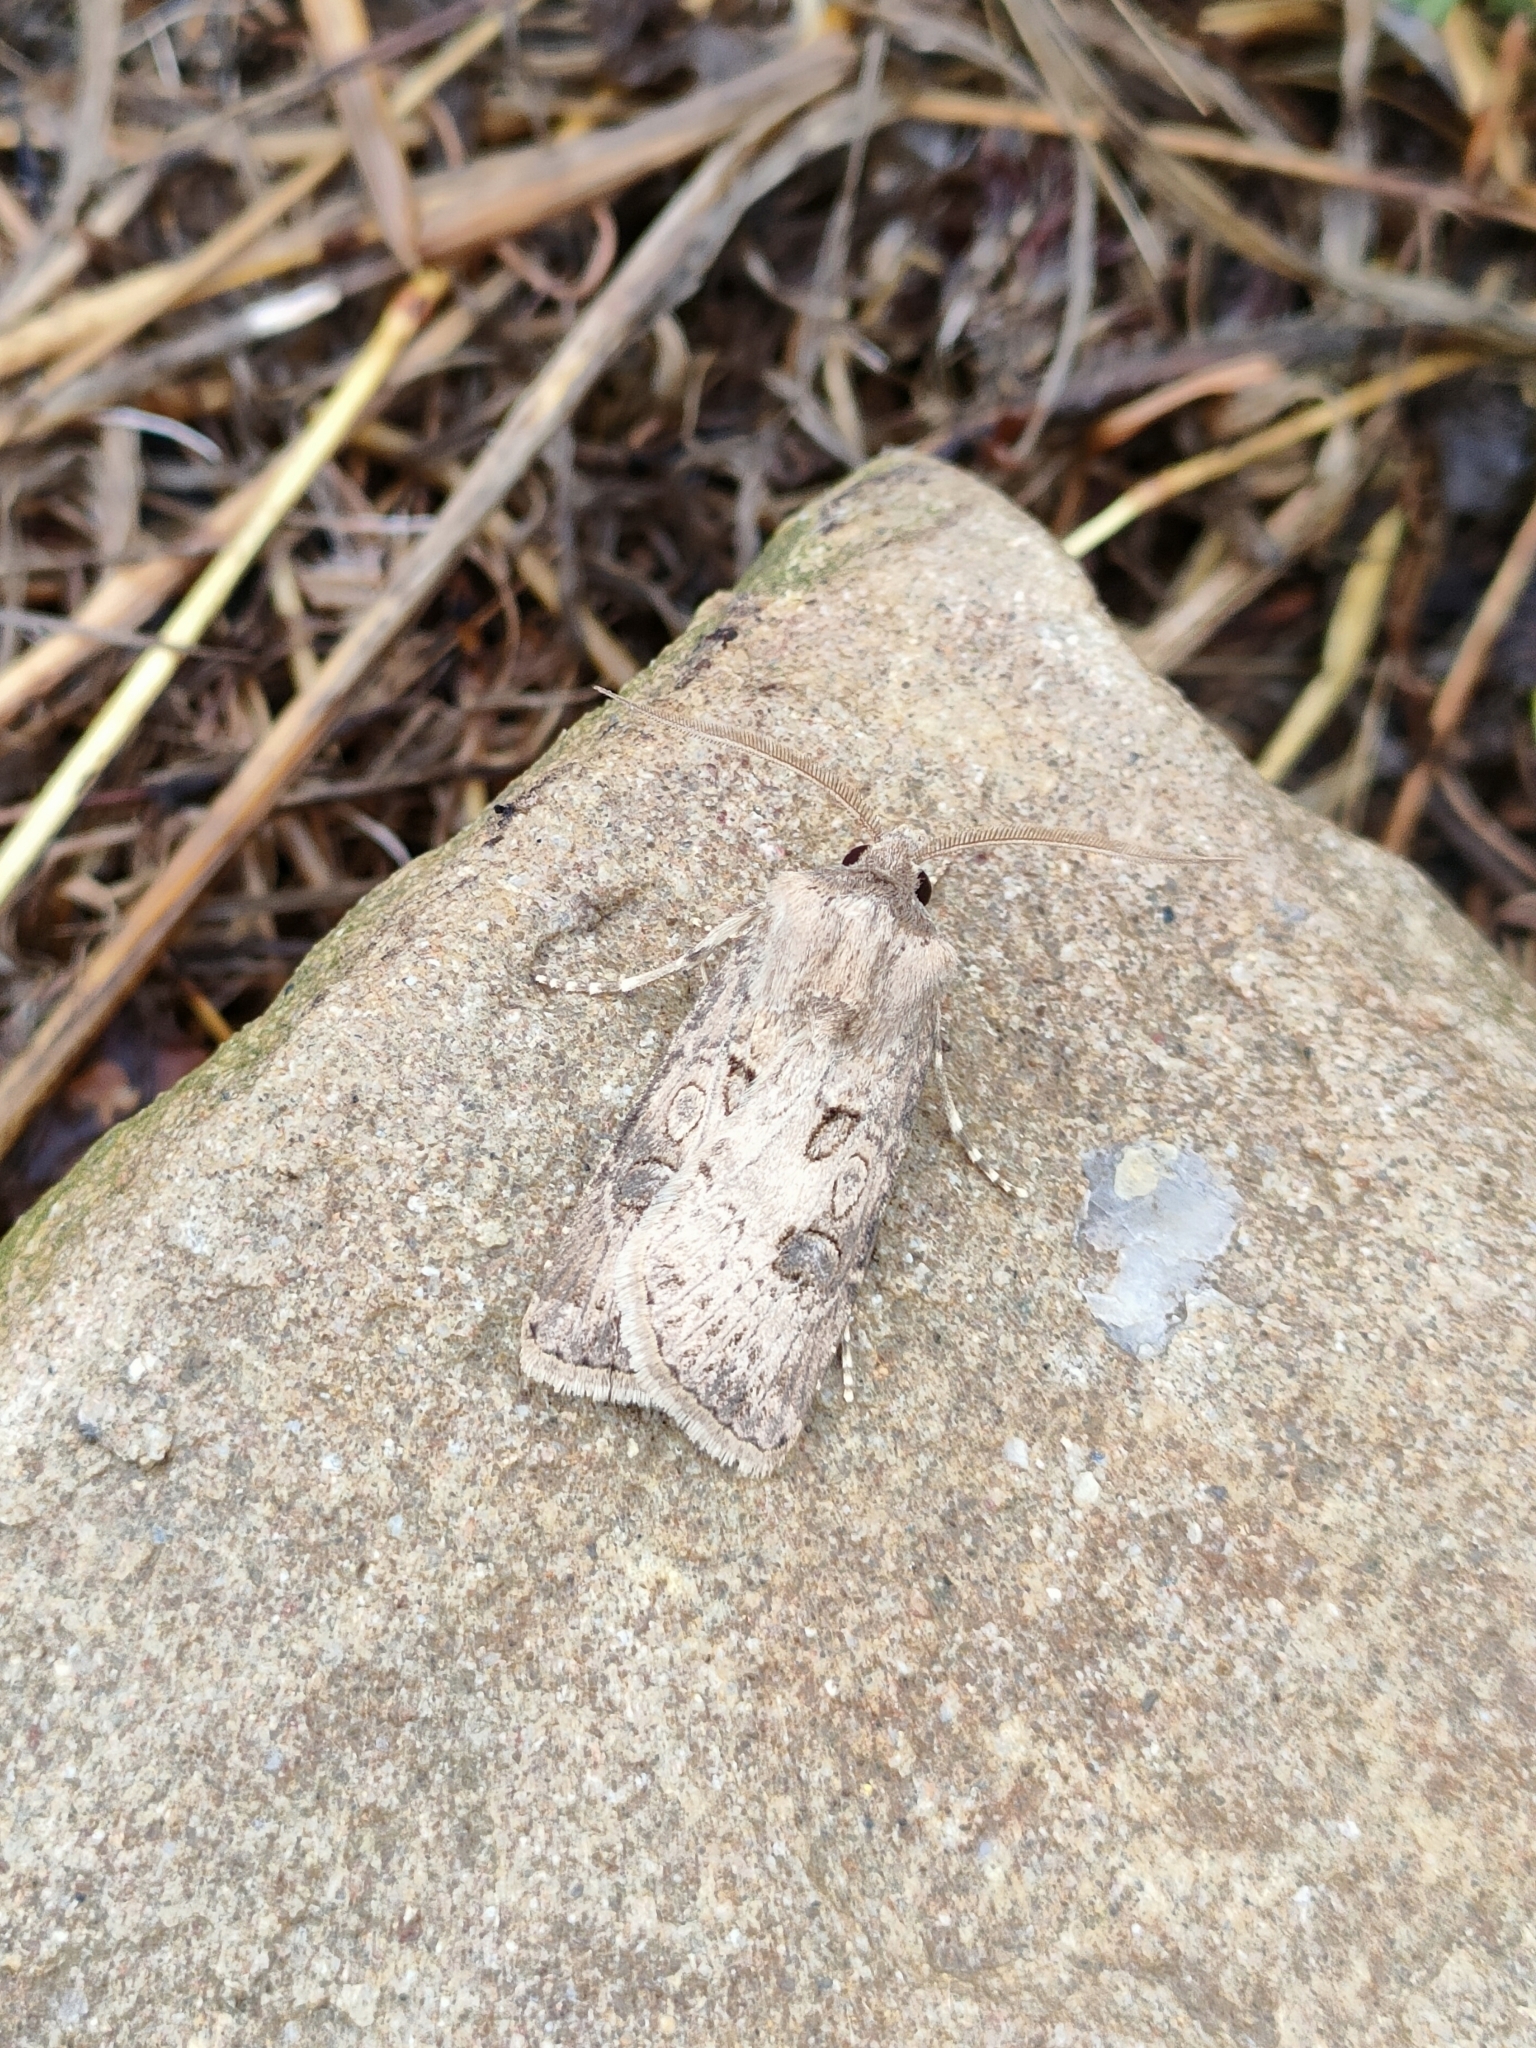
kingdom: Animalia
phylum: Arthropoda
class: Insecta
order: Lepidoptera
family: Noctuidae
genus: Agrotis
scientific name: Agrotis bigramma
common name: Great dart
